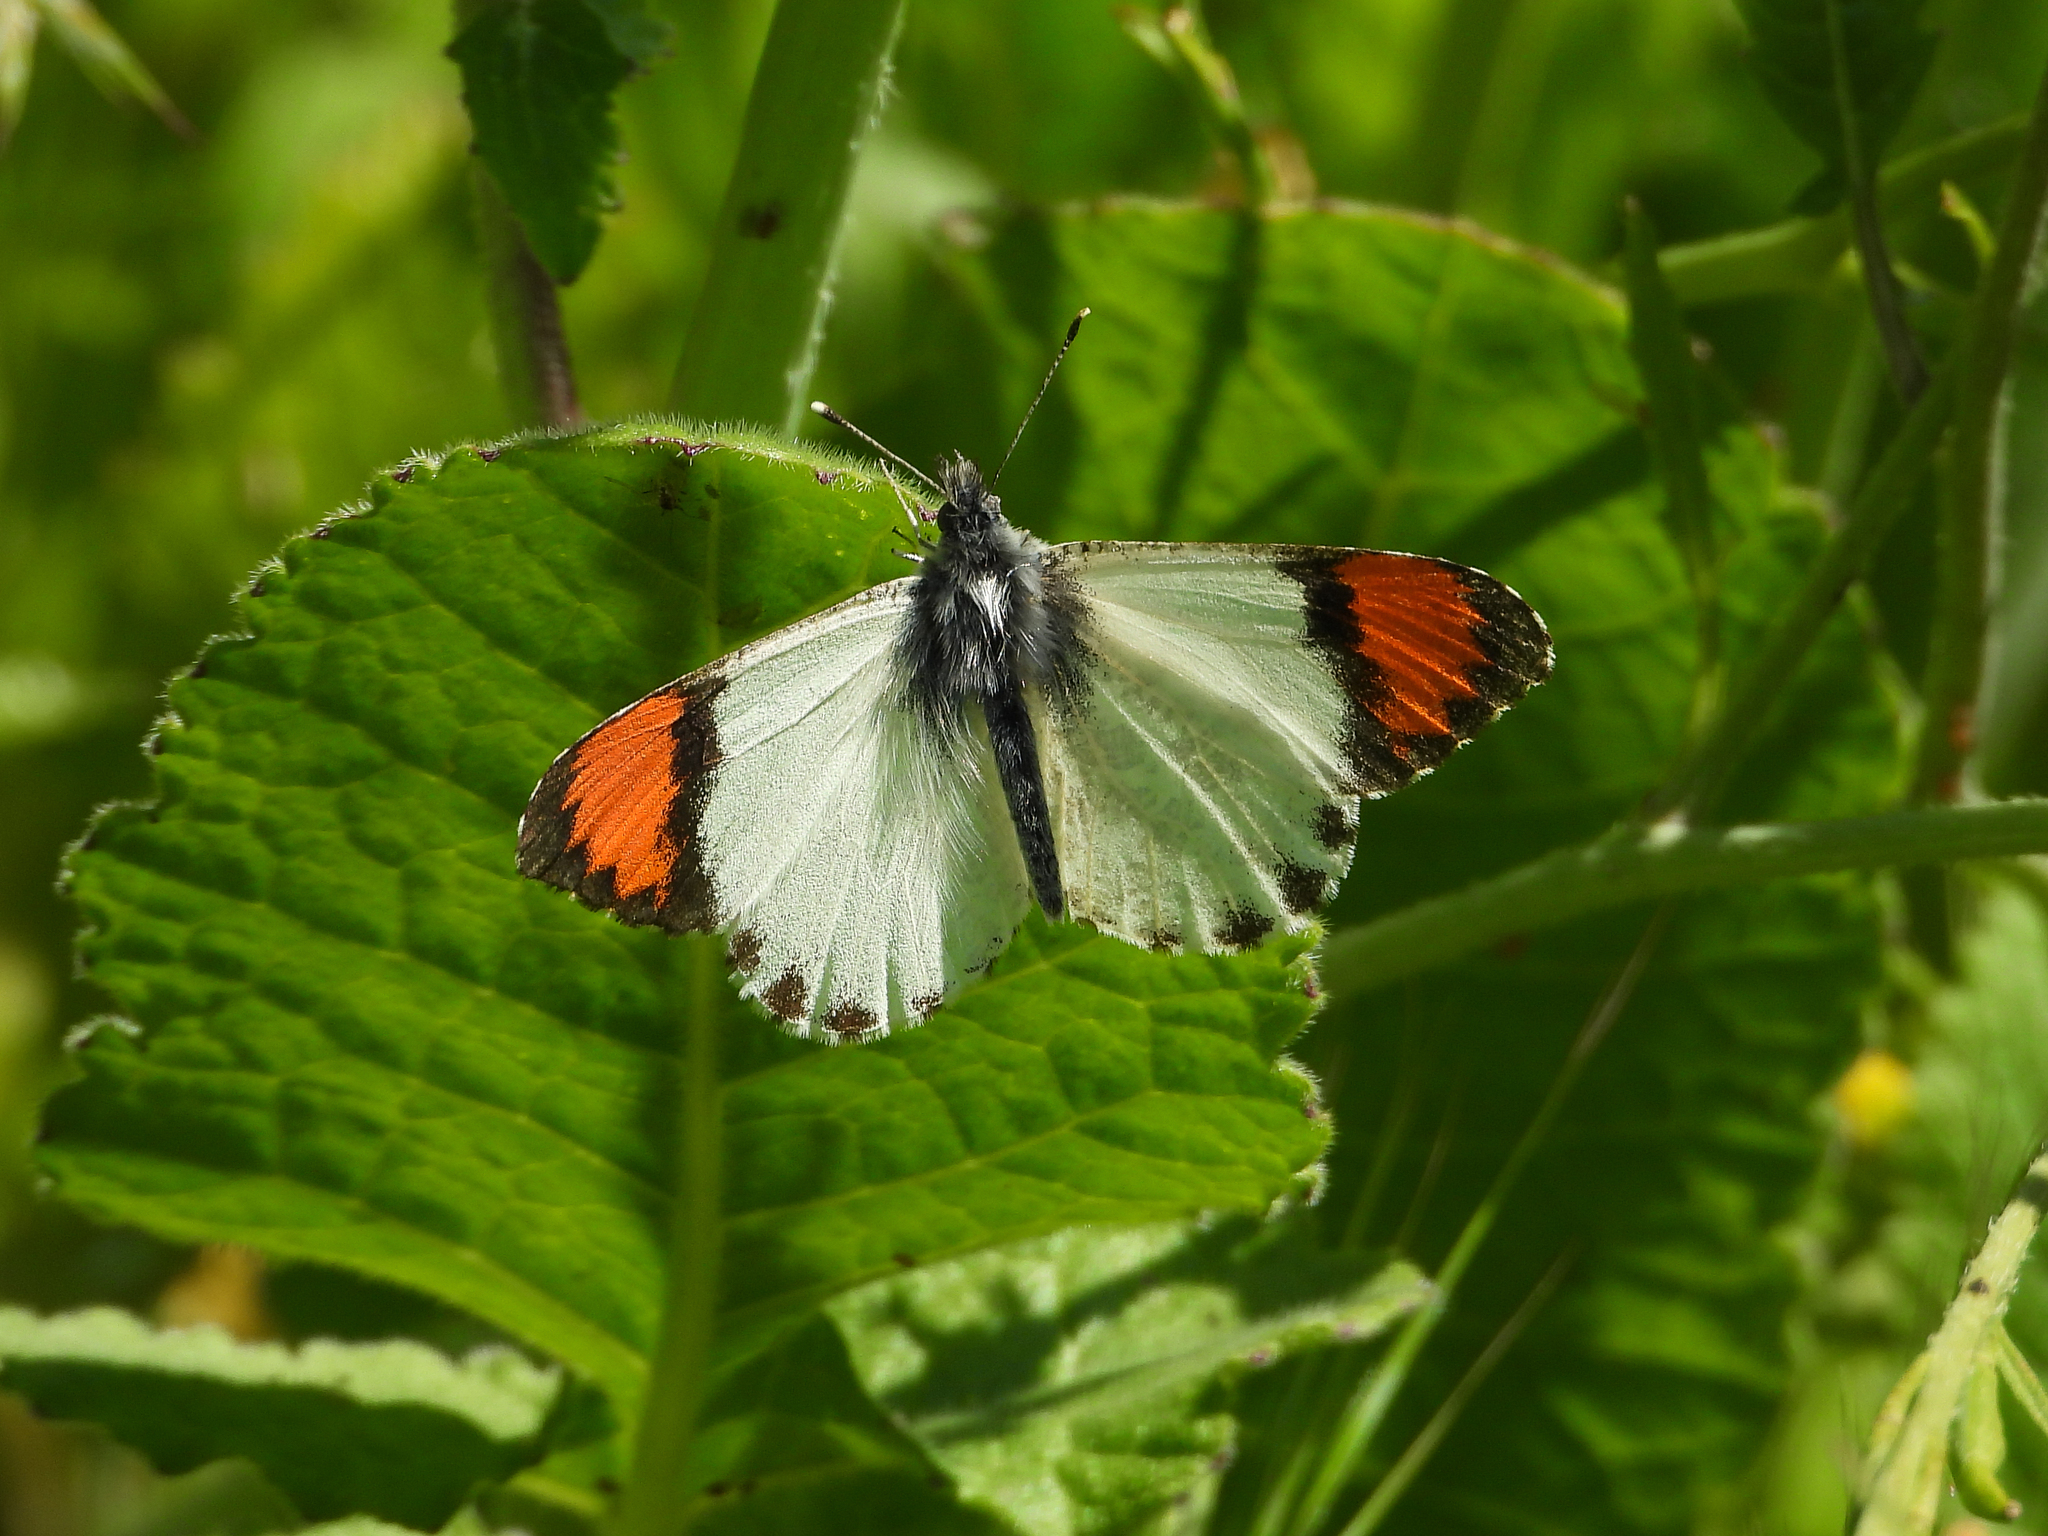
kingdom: Animalia
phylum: Arthropoda
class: Insecta
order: Lepidoptera
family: Pieridae
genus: Anthocharis
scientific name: Anthocharis sara
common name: Sara's orangetip
